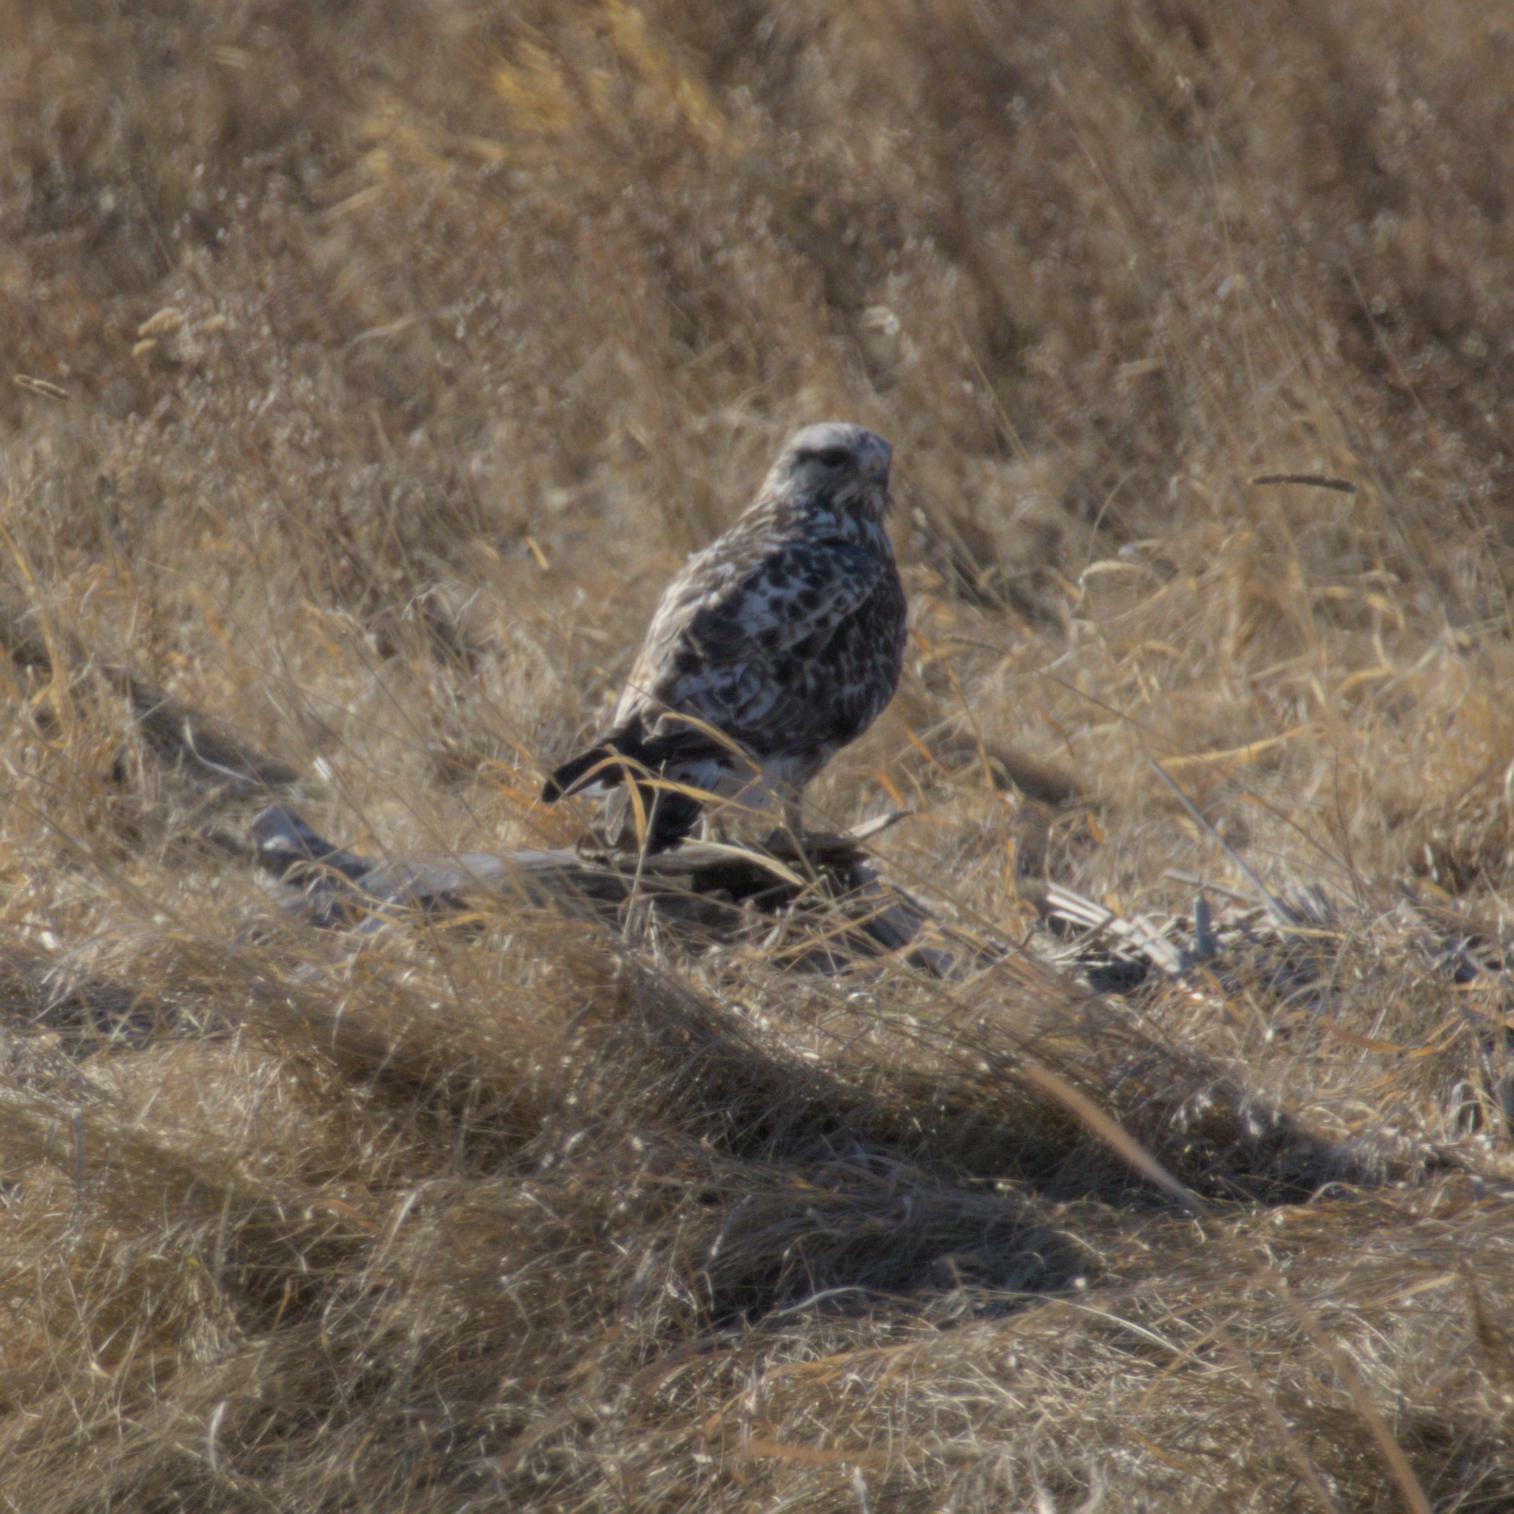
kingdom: Animalia
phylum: Chordata
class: Aves
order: Accipitriformes
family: Accipitridae
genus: Buteo
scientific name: Buteo lagopus
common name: Rough-legged buzzard
